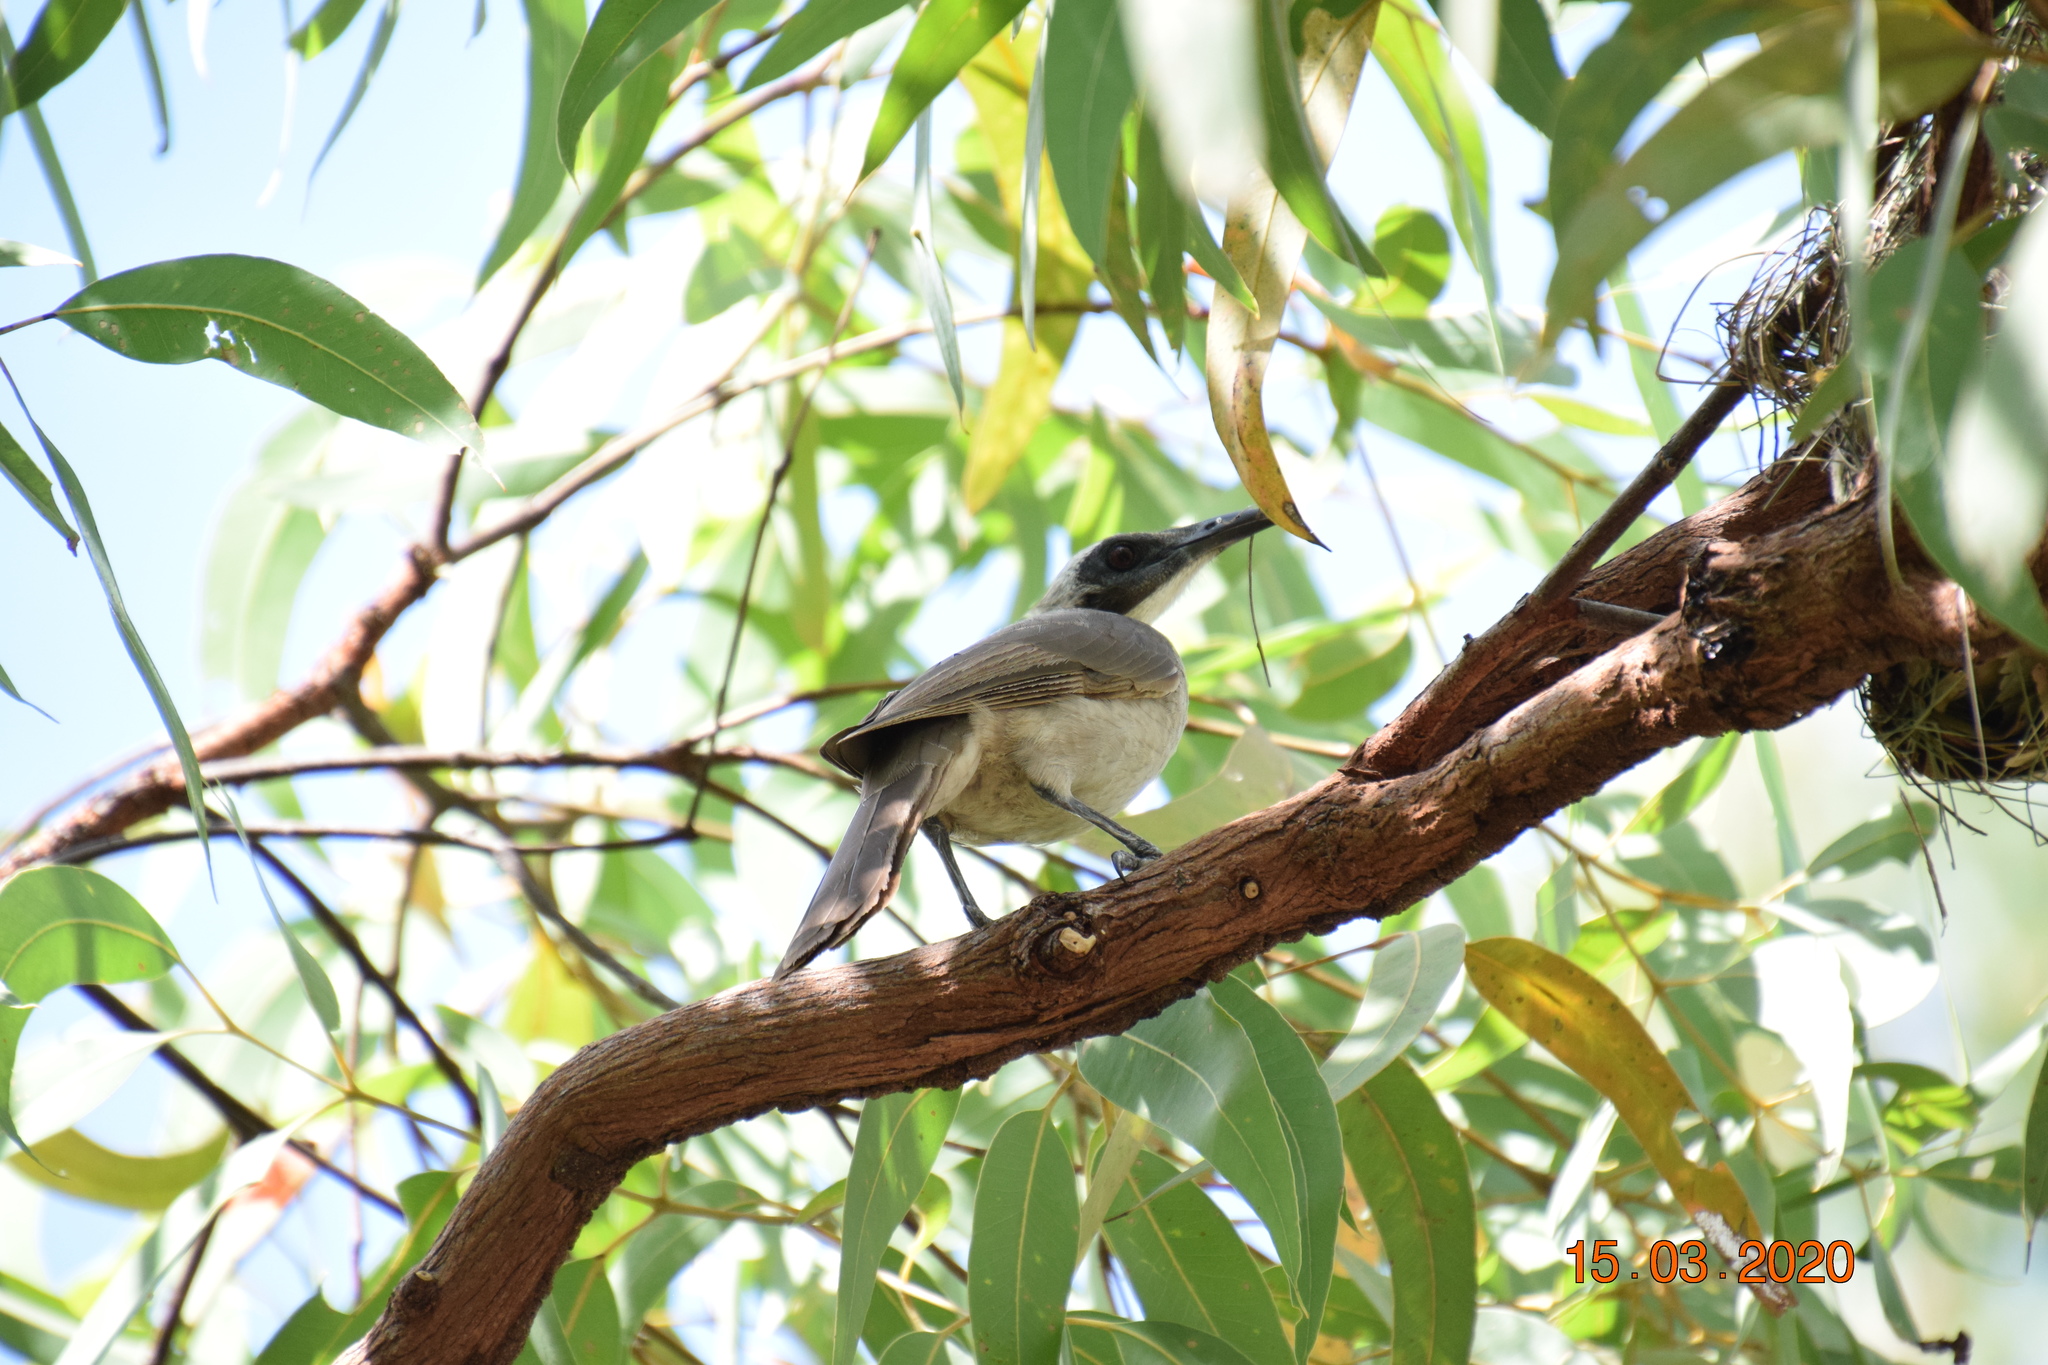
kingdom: Animalia
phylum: Chordata
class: Aves
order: Passeriformes
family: Meliphagidae
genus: Philemon
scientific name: Philemon buceroides
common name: Helmeted friarbird
